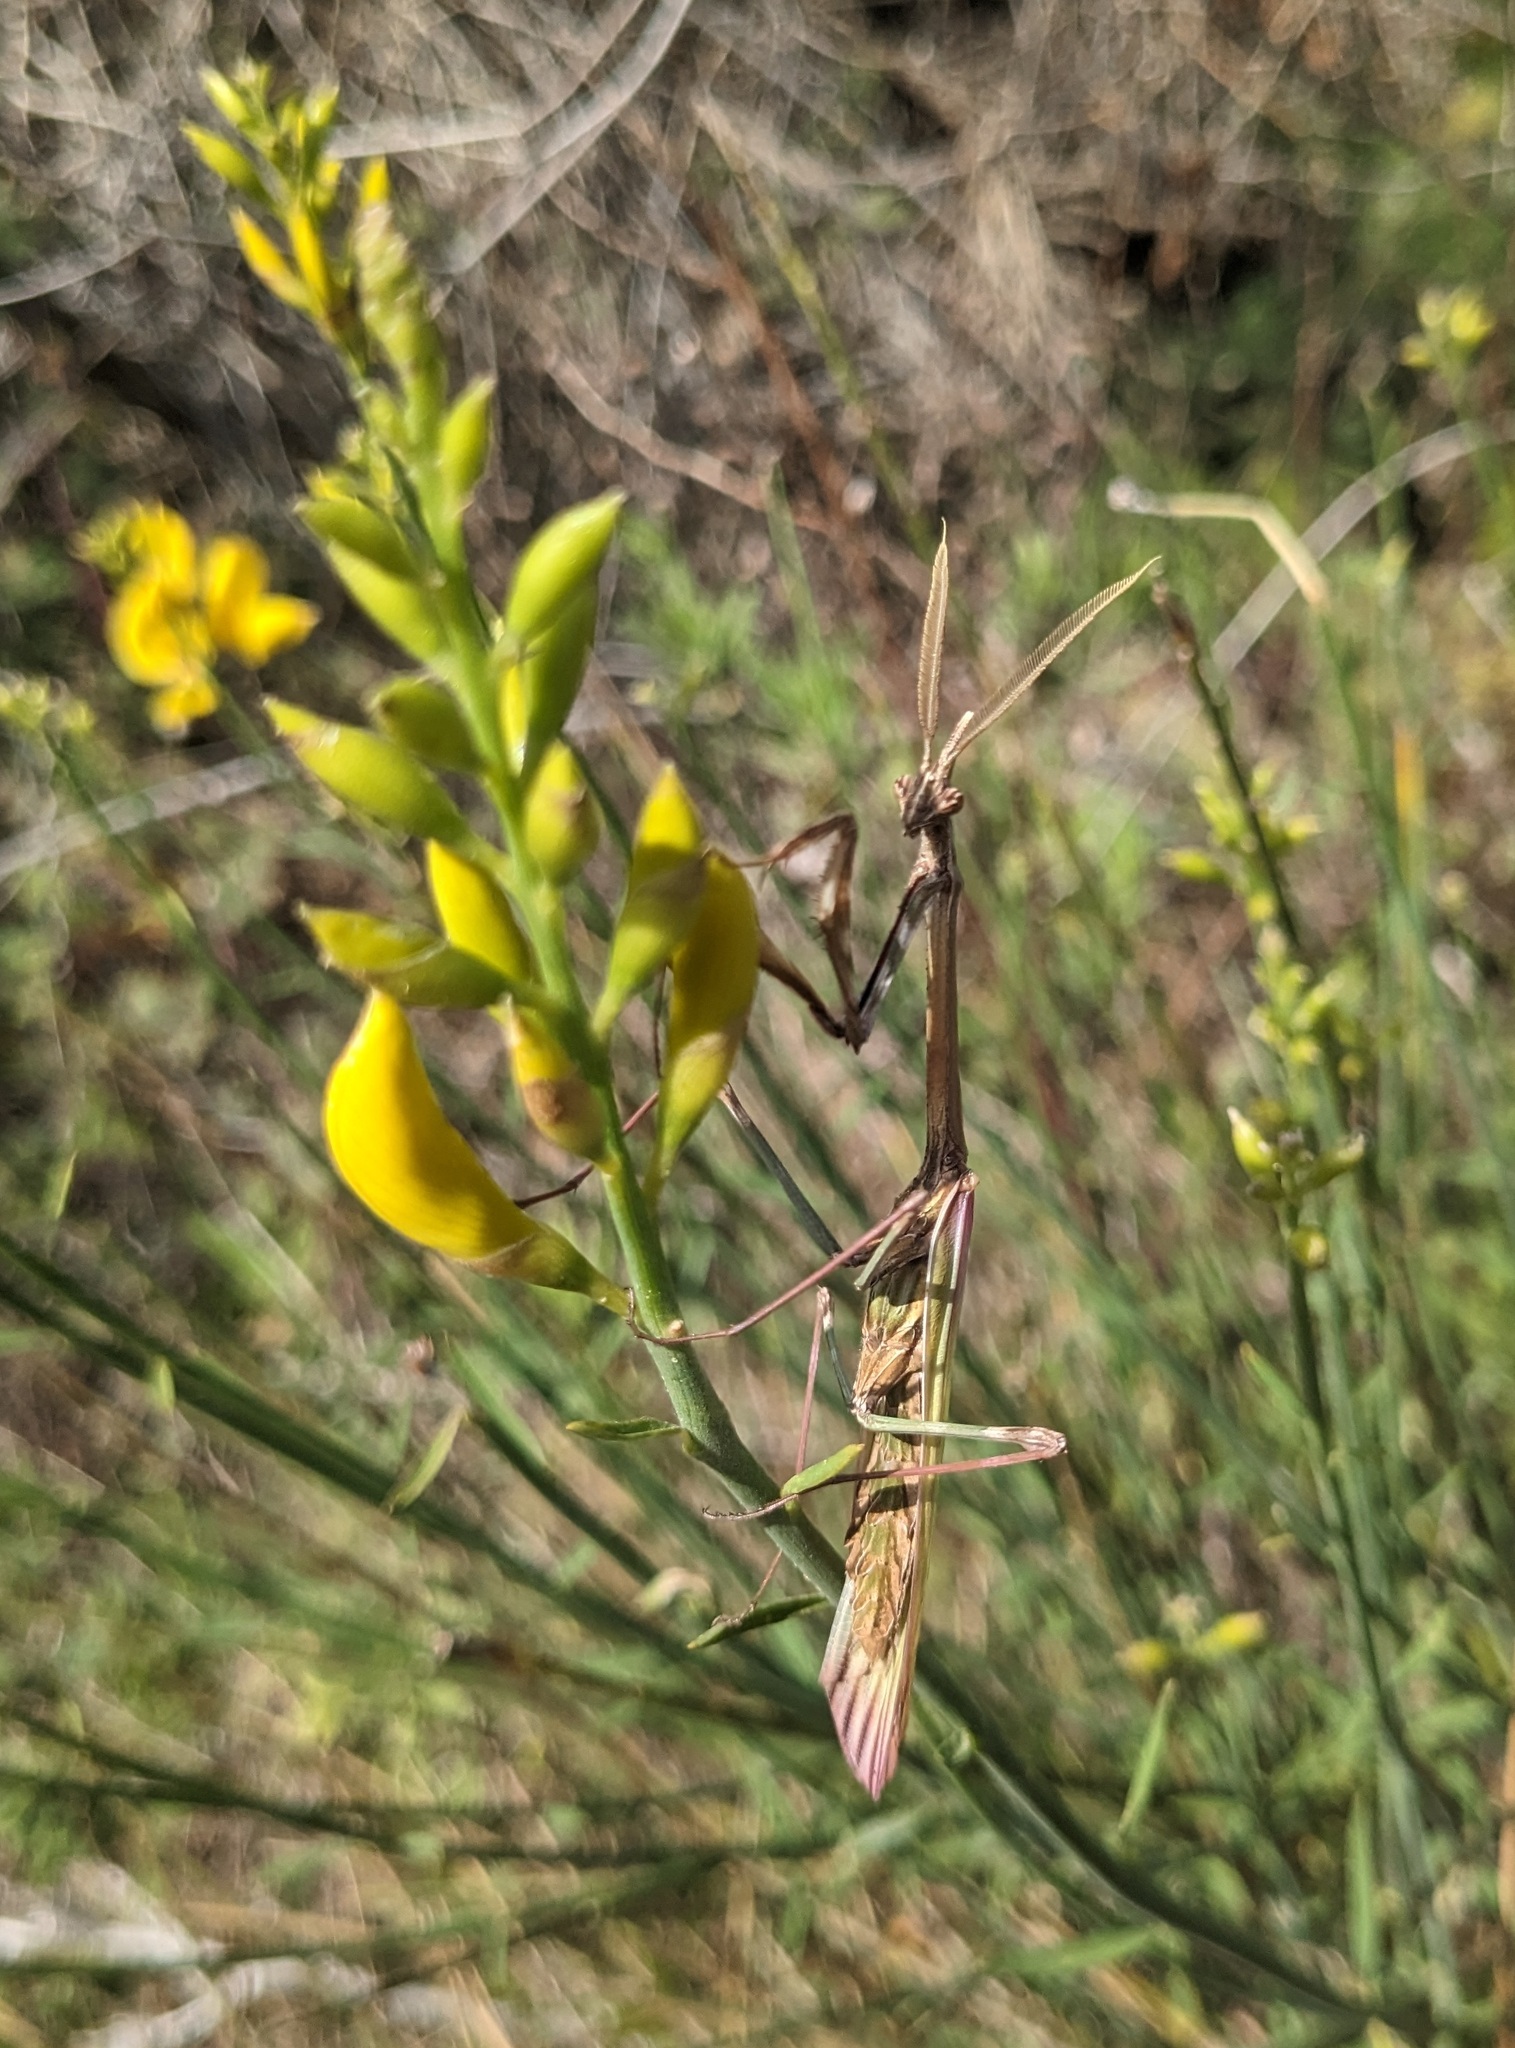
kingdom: Animalia
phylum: Arthropoda
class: Insecta
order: Mantodea
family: Empusidae
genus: Empusa
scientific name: Empusa pennata
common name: Conehead mantis
